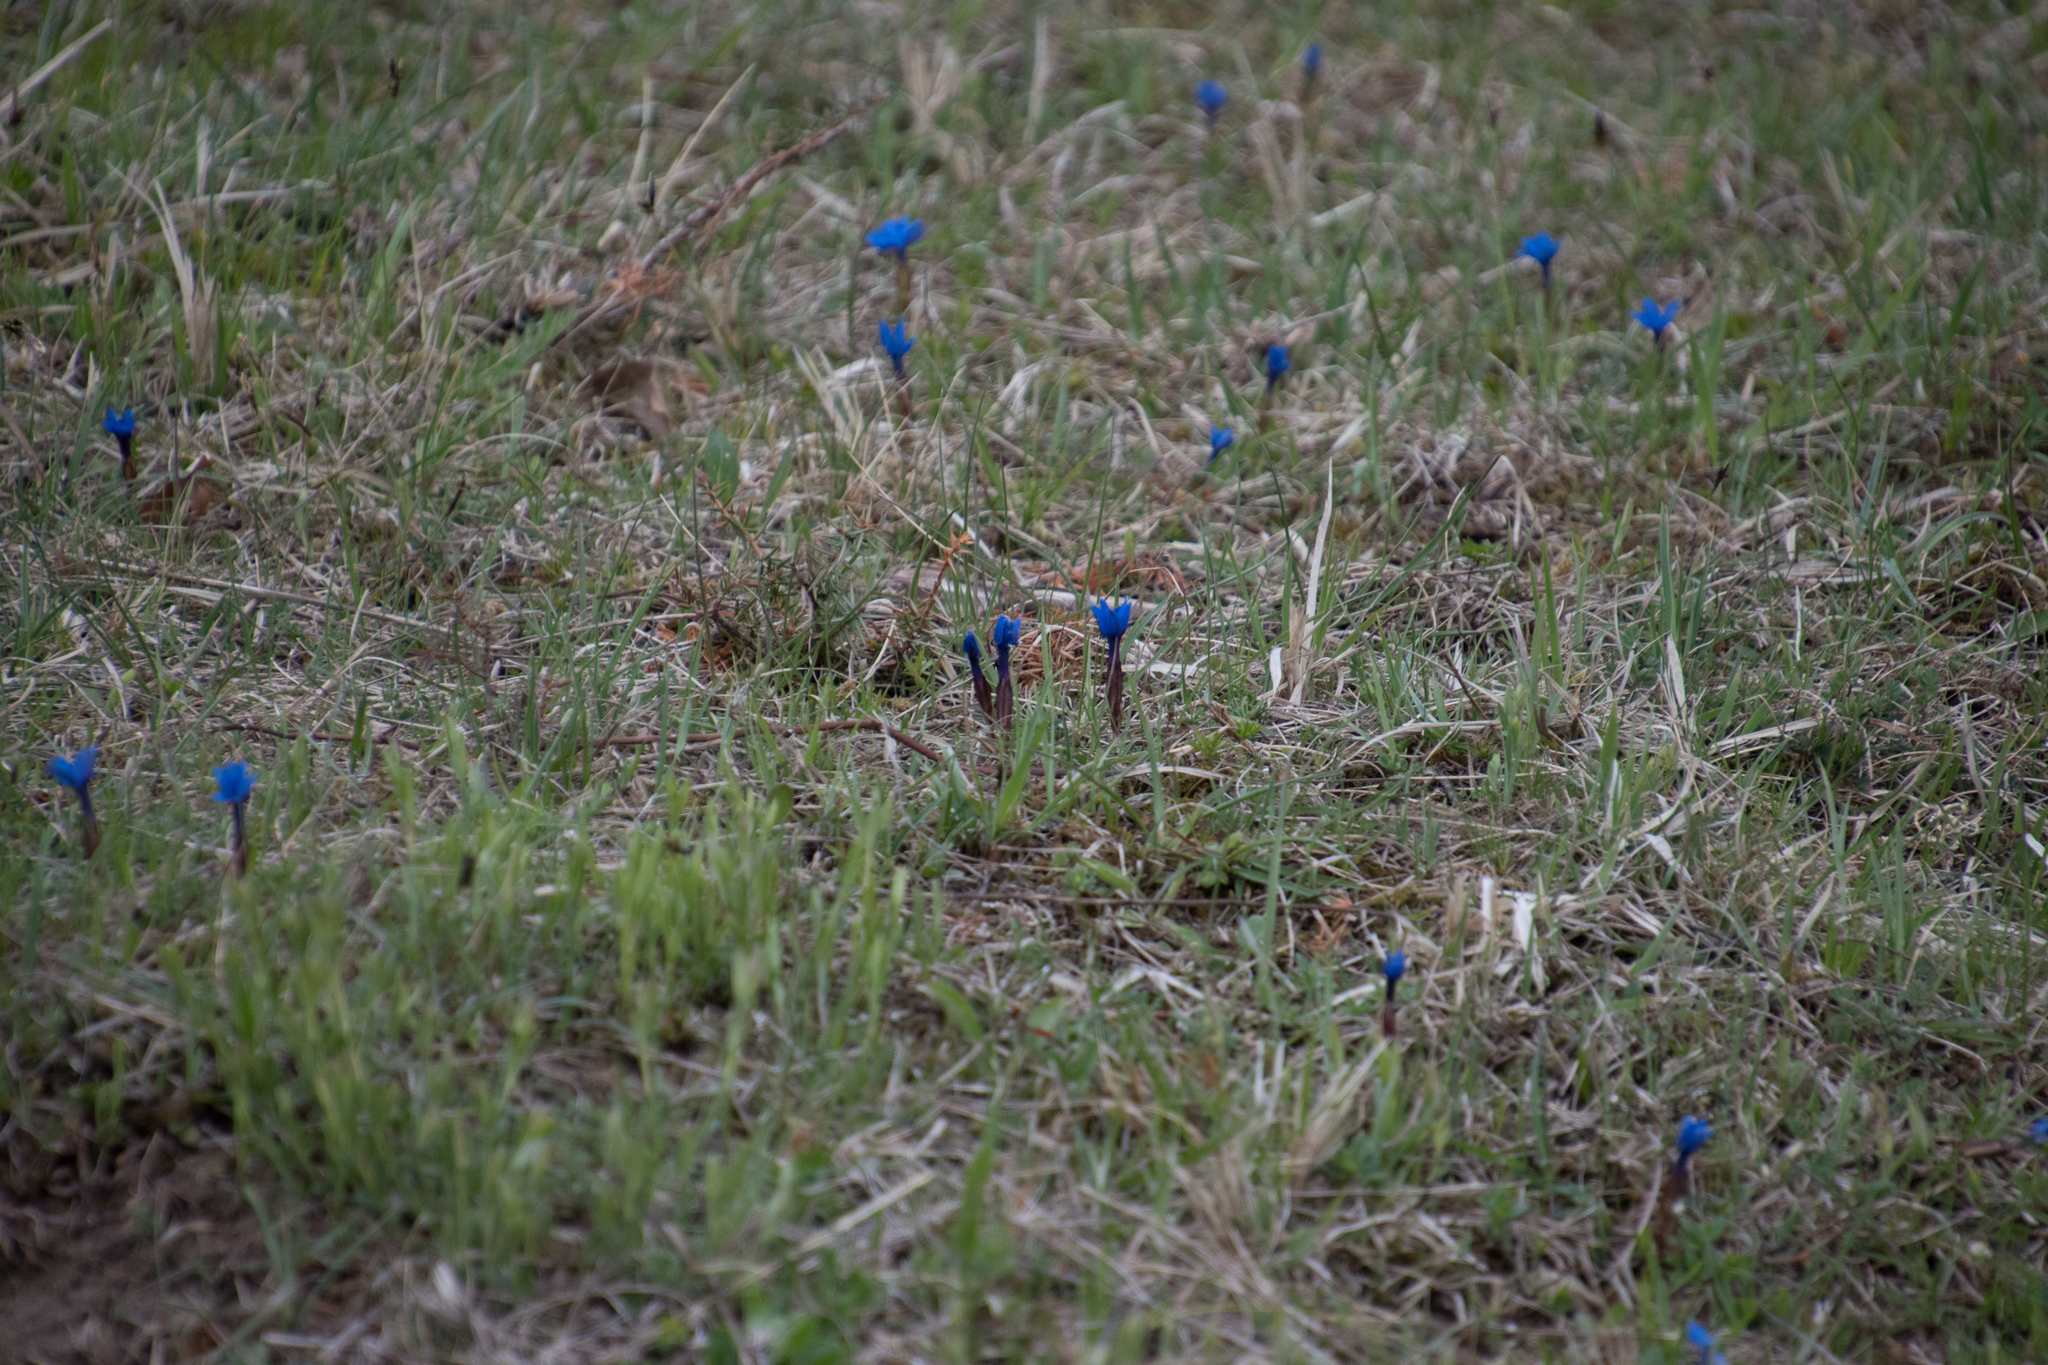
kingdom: Plantae
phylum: Tracheophyta
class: Magnoliopsida
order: Gentianales
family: Gentianaceae
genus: Gentiana
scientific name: Gentiana verna
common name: Spring gentian
